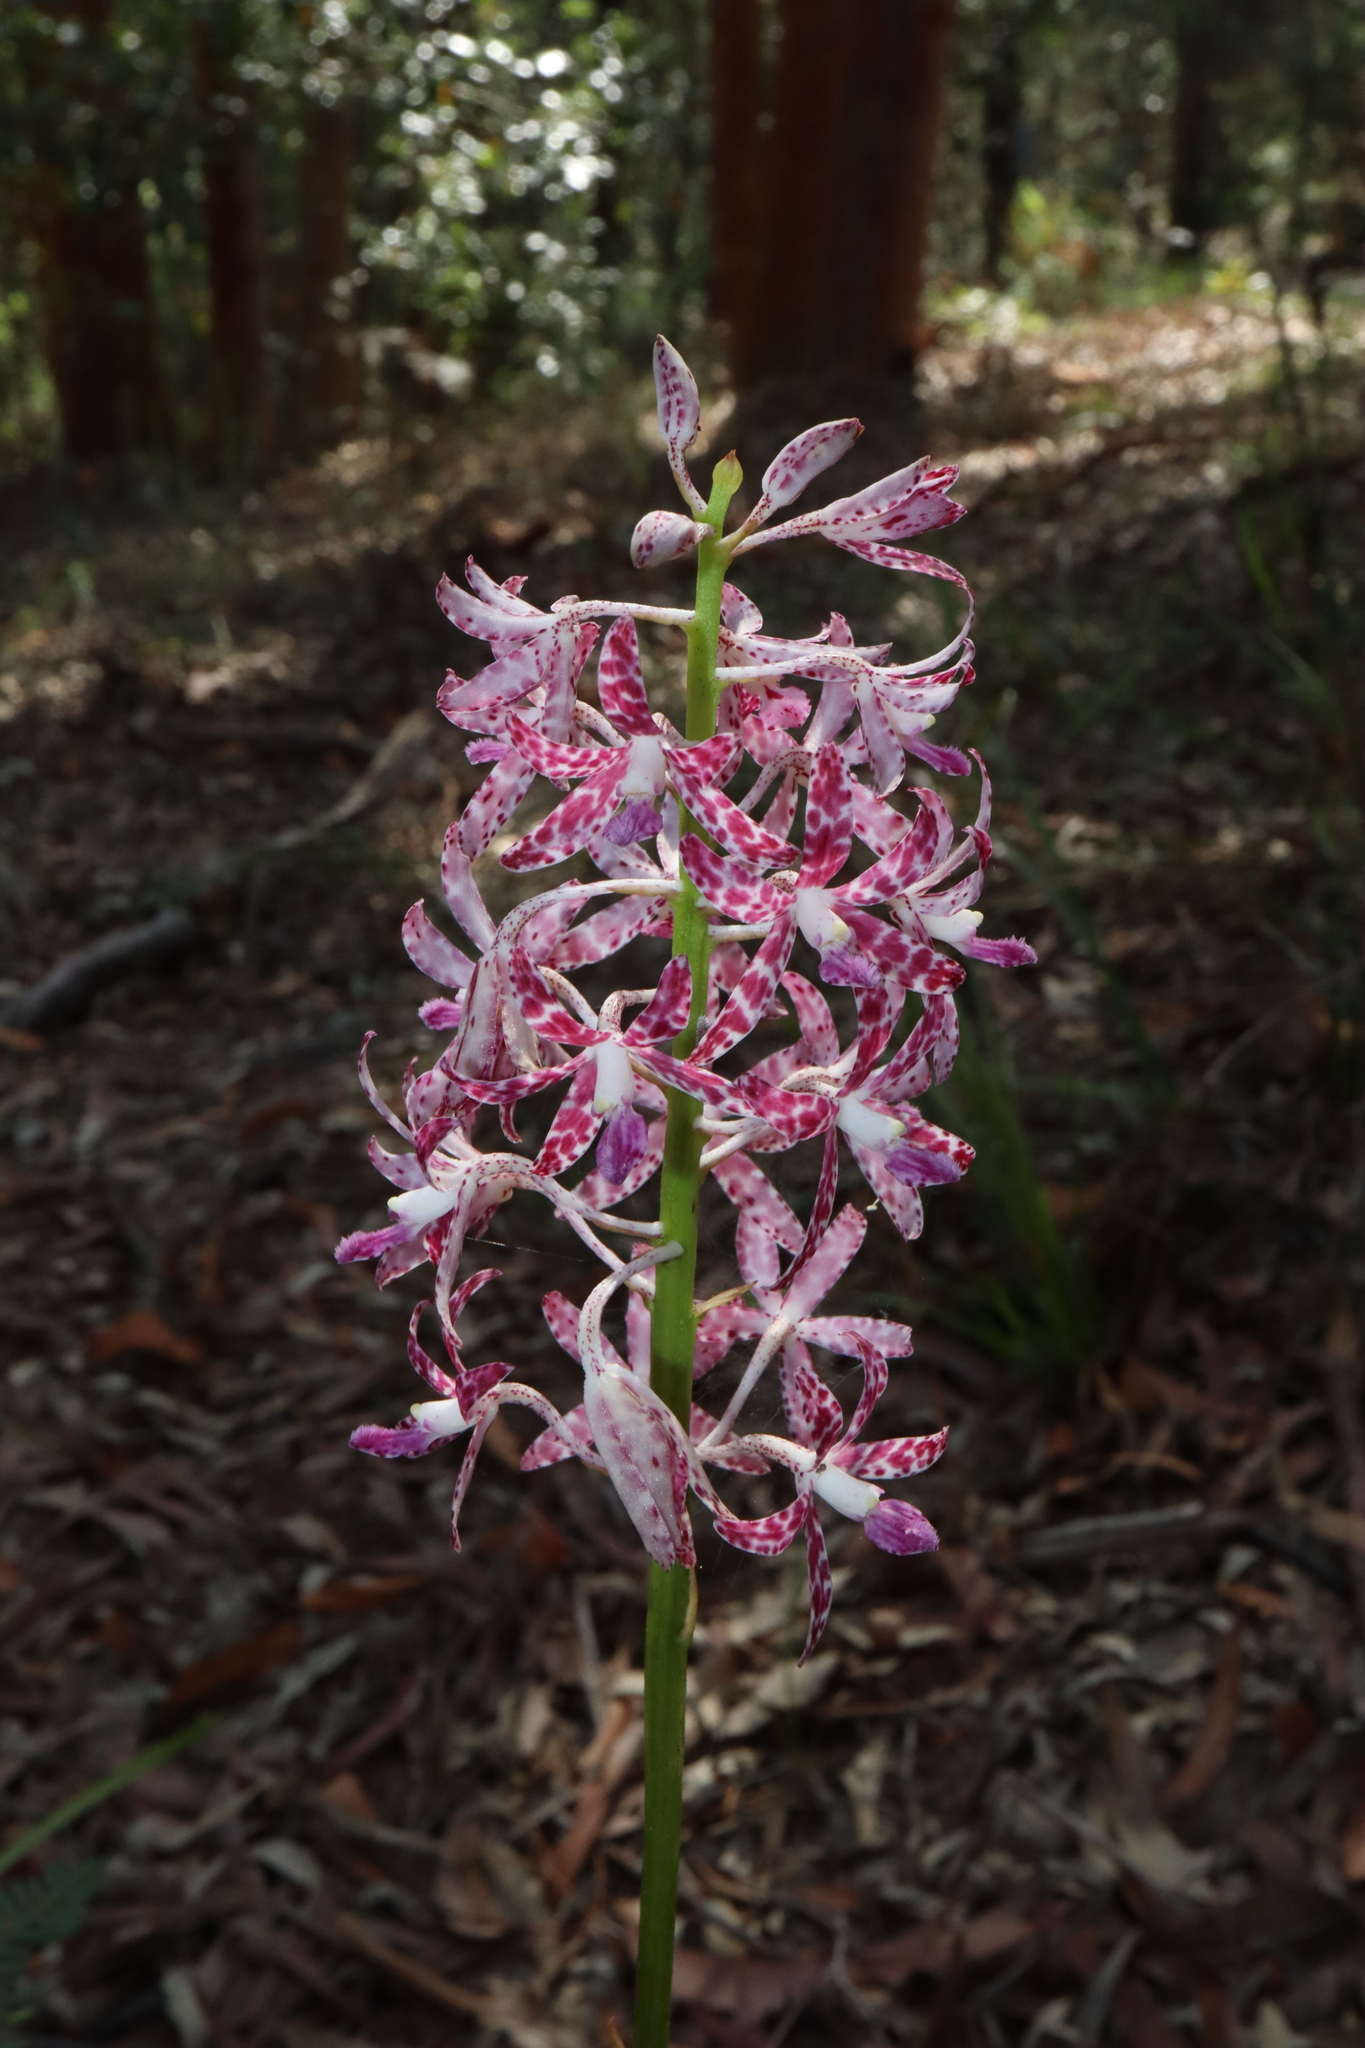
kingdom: Plantae
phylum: Tracheophyta
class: Liliopsida
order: Asparagales
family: Orchidaceae
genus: Dipodium
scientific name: Dipodium variegatum
